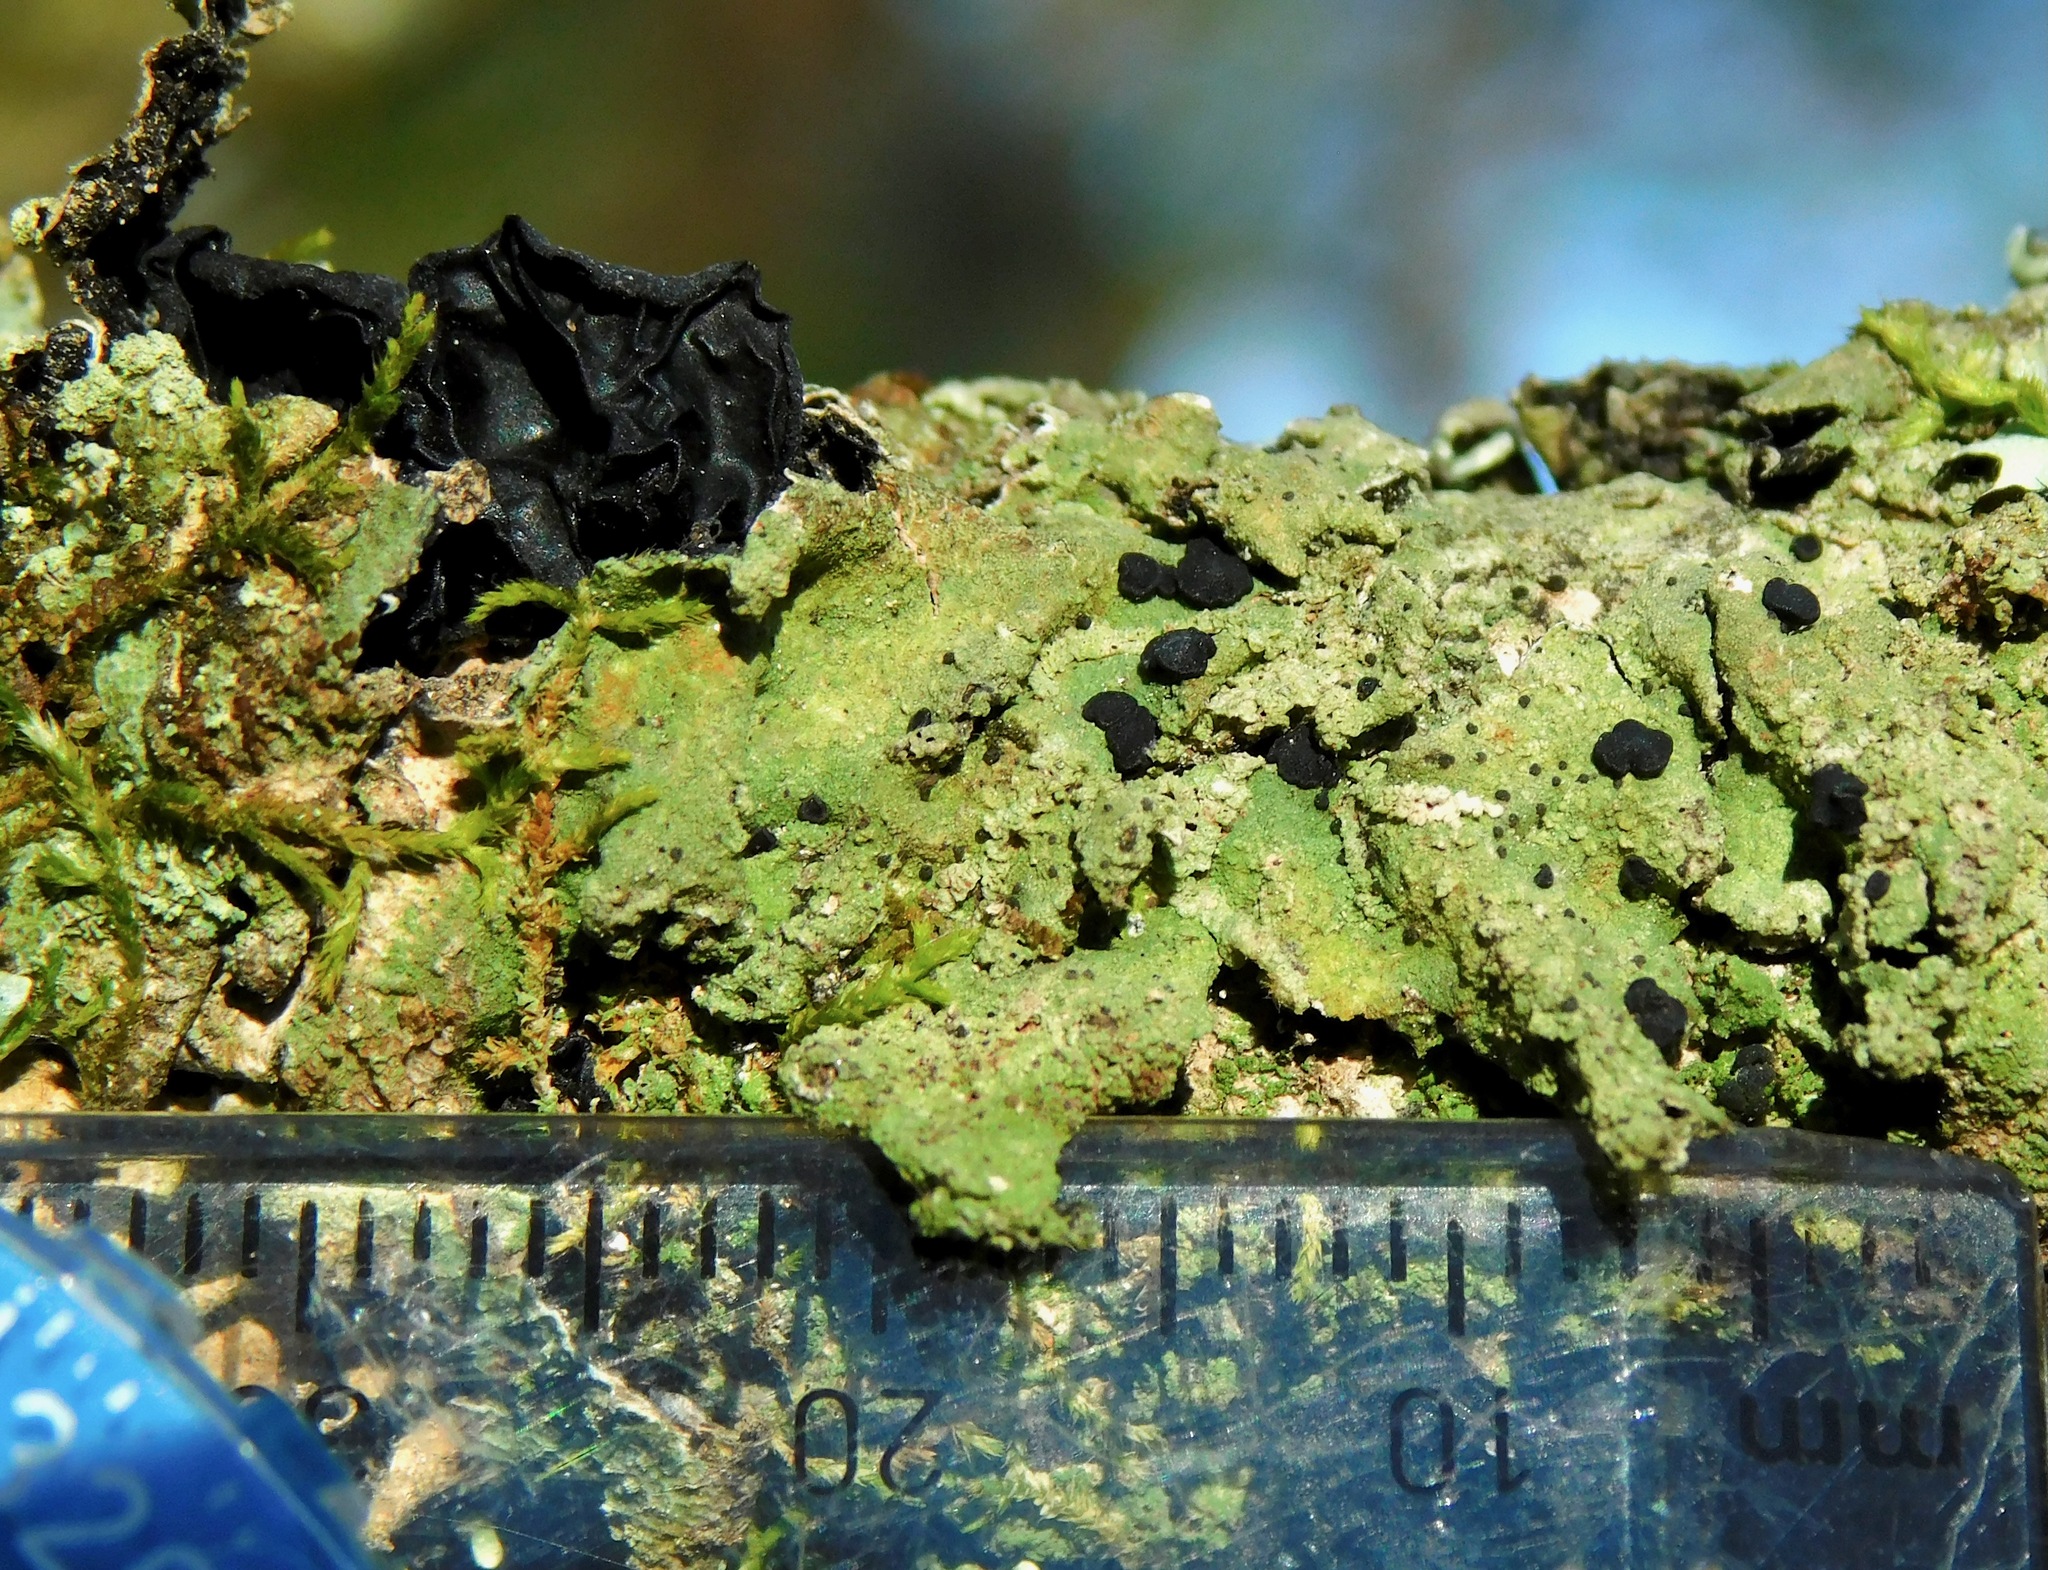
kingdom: Fungi
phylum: Basidiomycota
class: Agaricomycetes
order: Auriculariales
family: Auriculariaceae
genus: Exidia
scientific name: Exidia glandulosa
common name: Witches' butter
